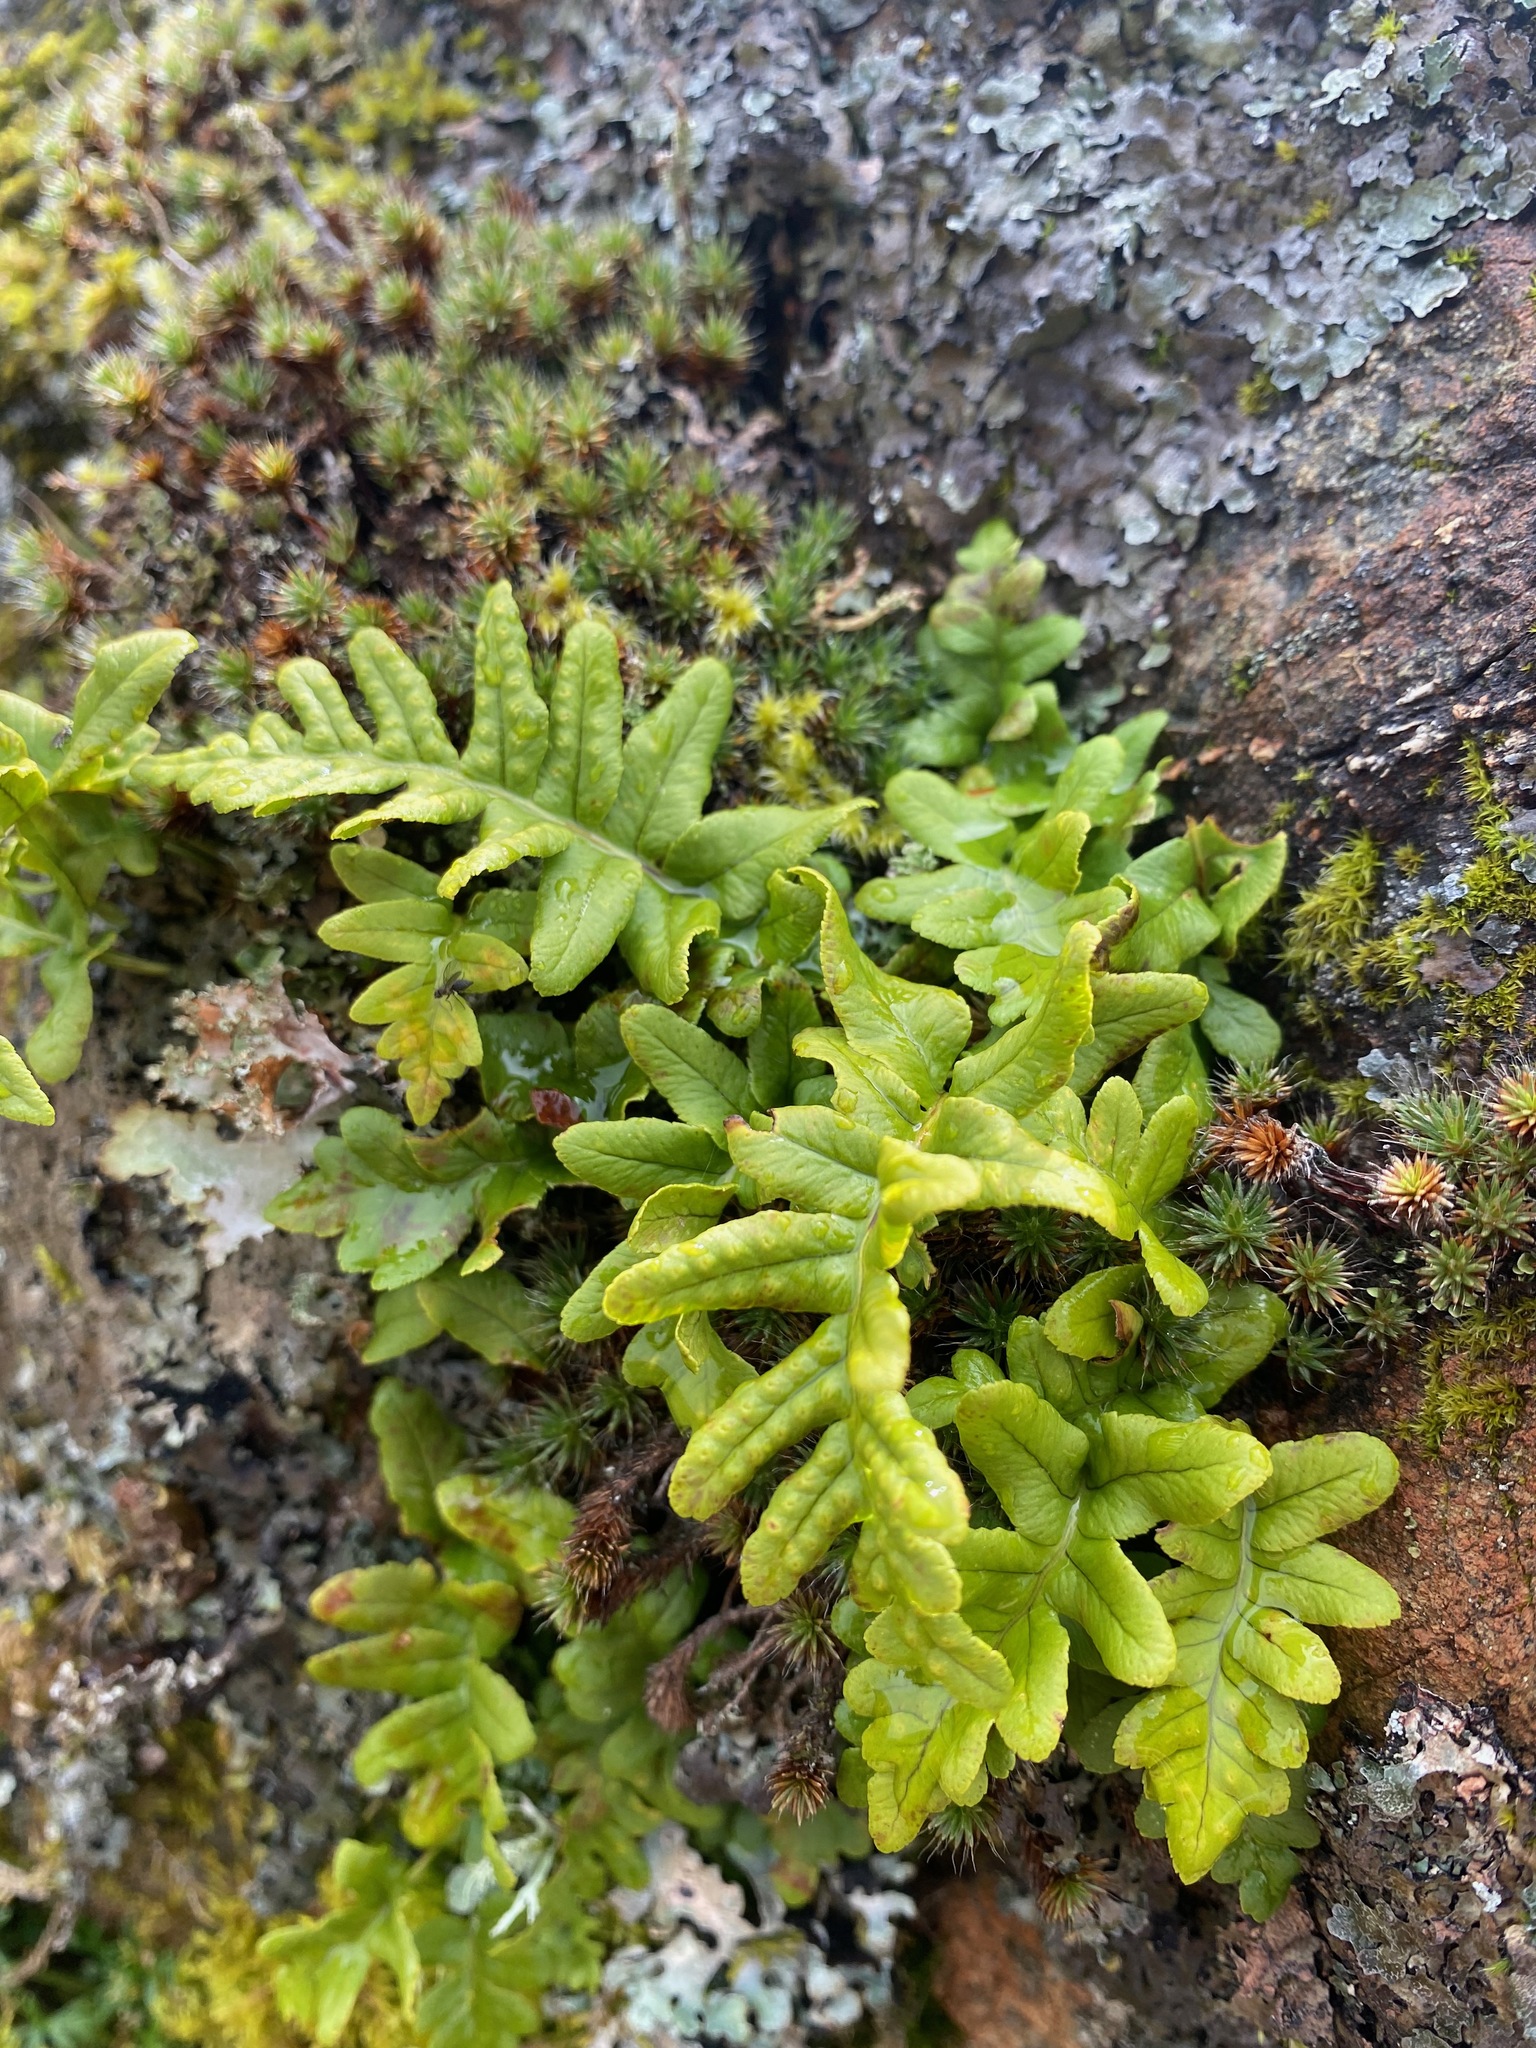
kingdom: Plantae
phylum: Tracheophyta
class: Polypodiopsida
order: Polypodiales
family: Polypodiaceae
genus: Polypodium
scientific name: Polypodium glycyrrhiza
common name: Licorice fern
